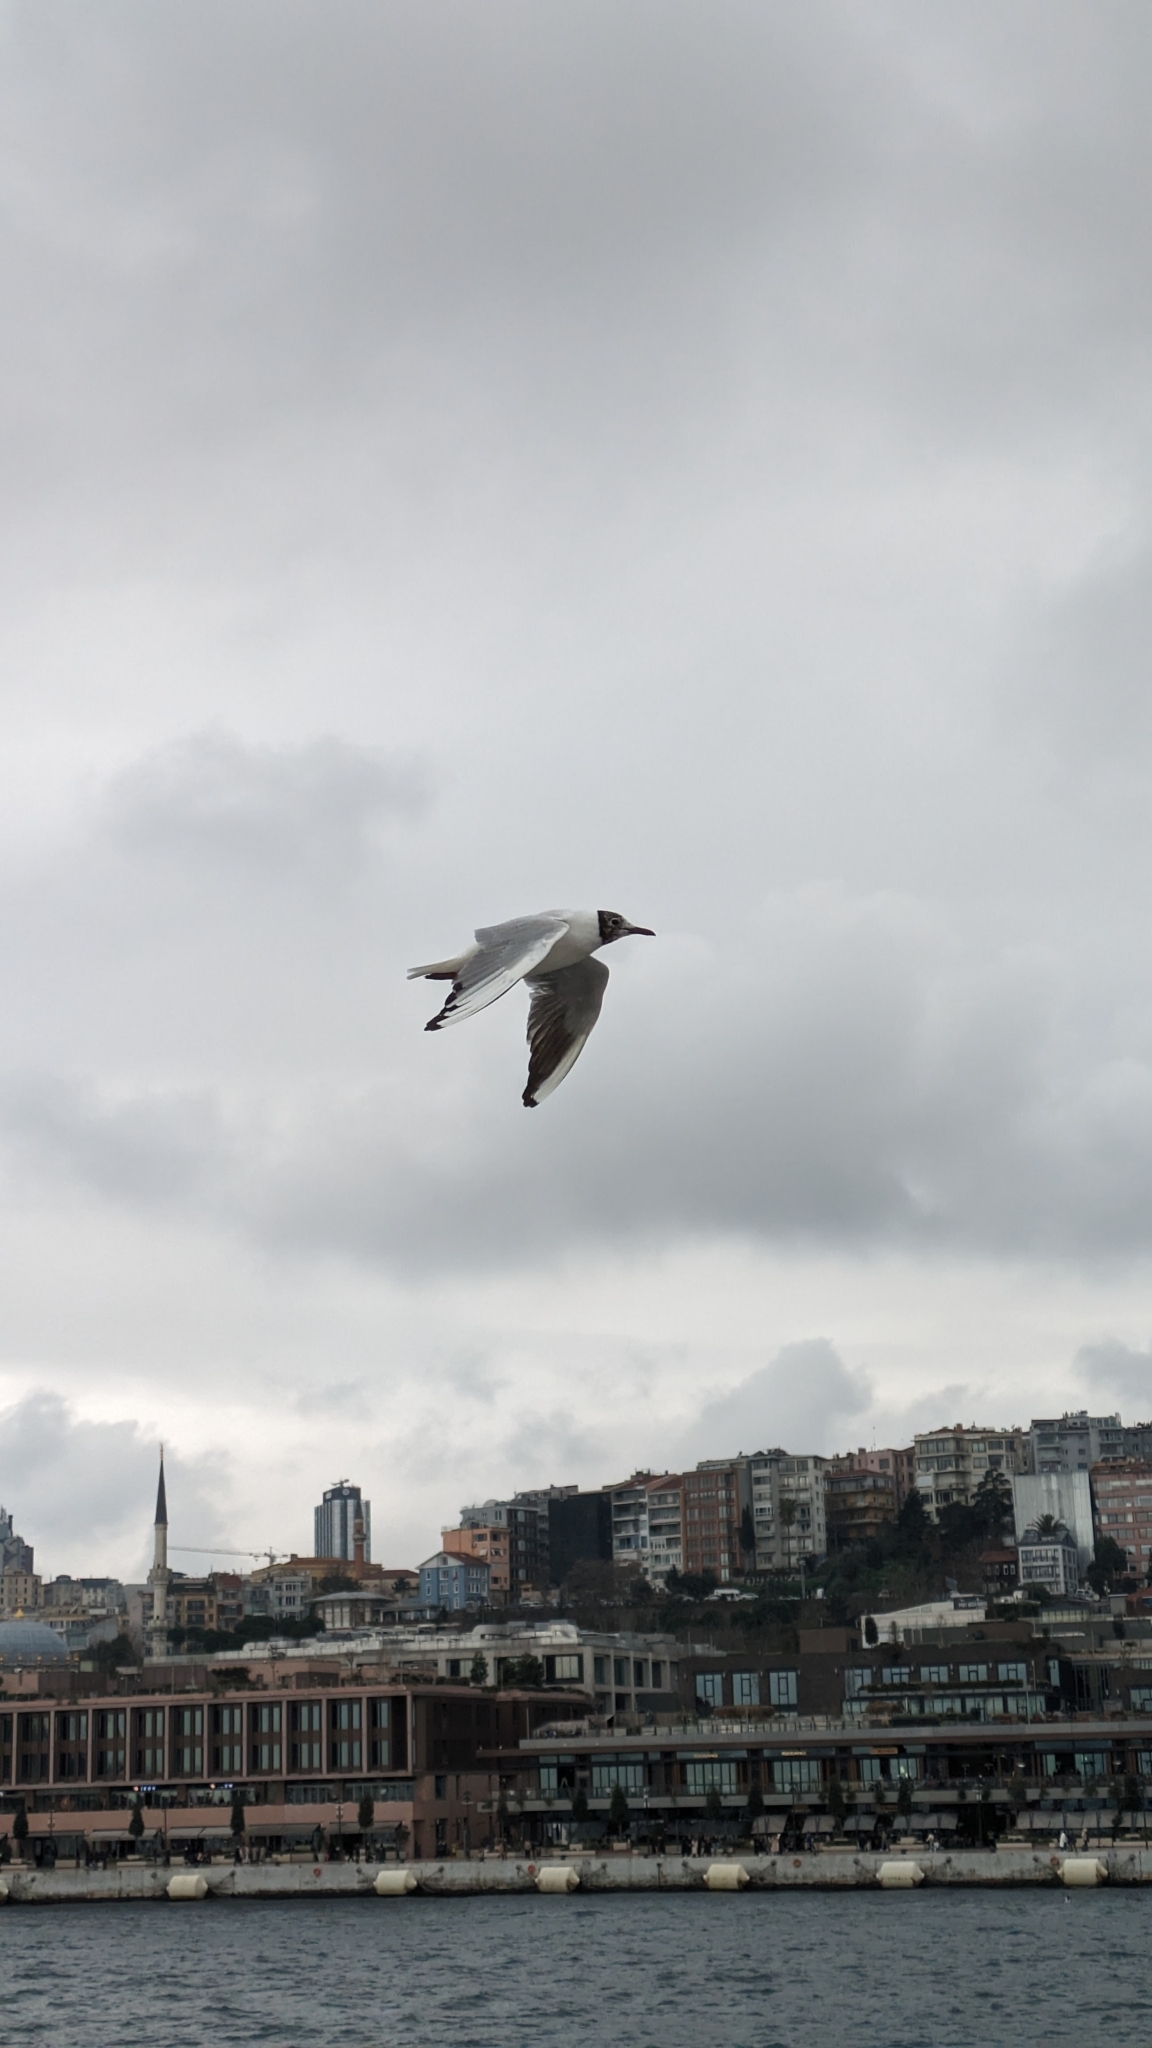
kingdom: Animalia
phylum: Chordata
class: Aves
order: Charadriiformes
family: Laridae
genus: Chroicocephalus
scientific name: Chroicocephalus ridibundus
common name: Black-headed gull
